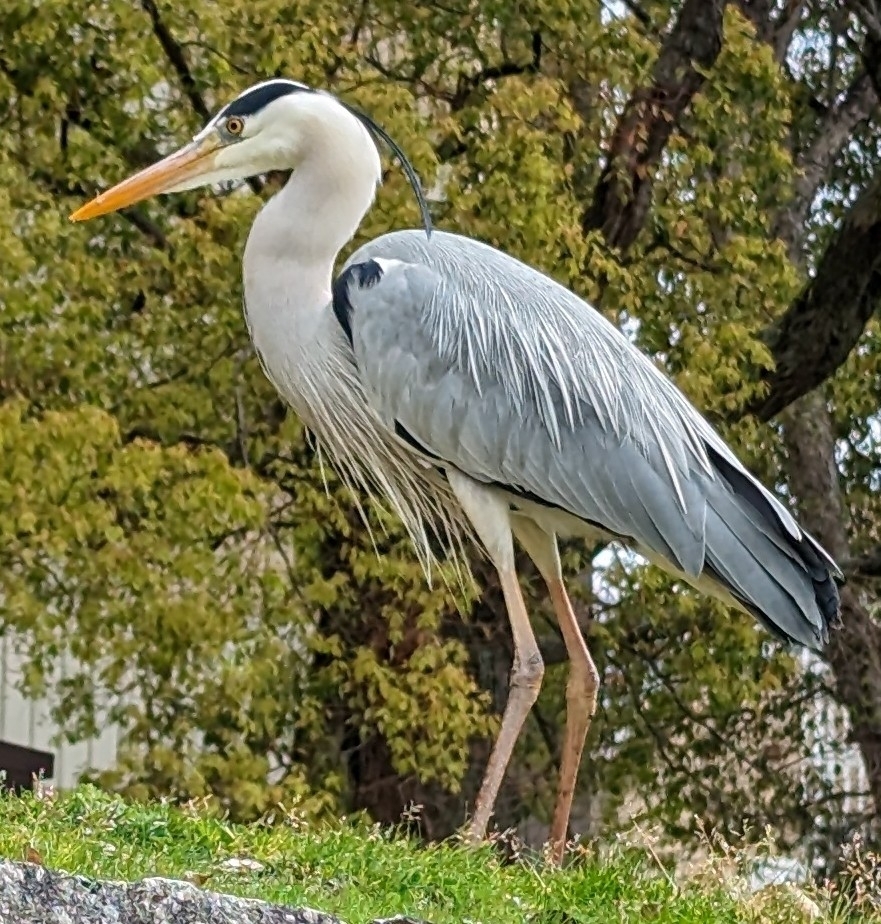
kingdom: Animalia
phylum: Chordata
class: Aves
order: Pelecaniformes
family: Ardeidae
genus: Ardea
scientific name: Ardea cinerea
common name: Grey heron
